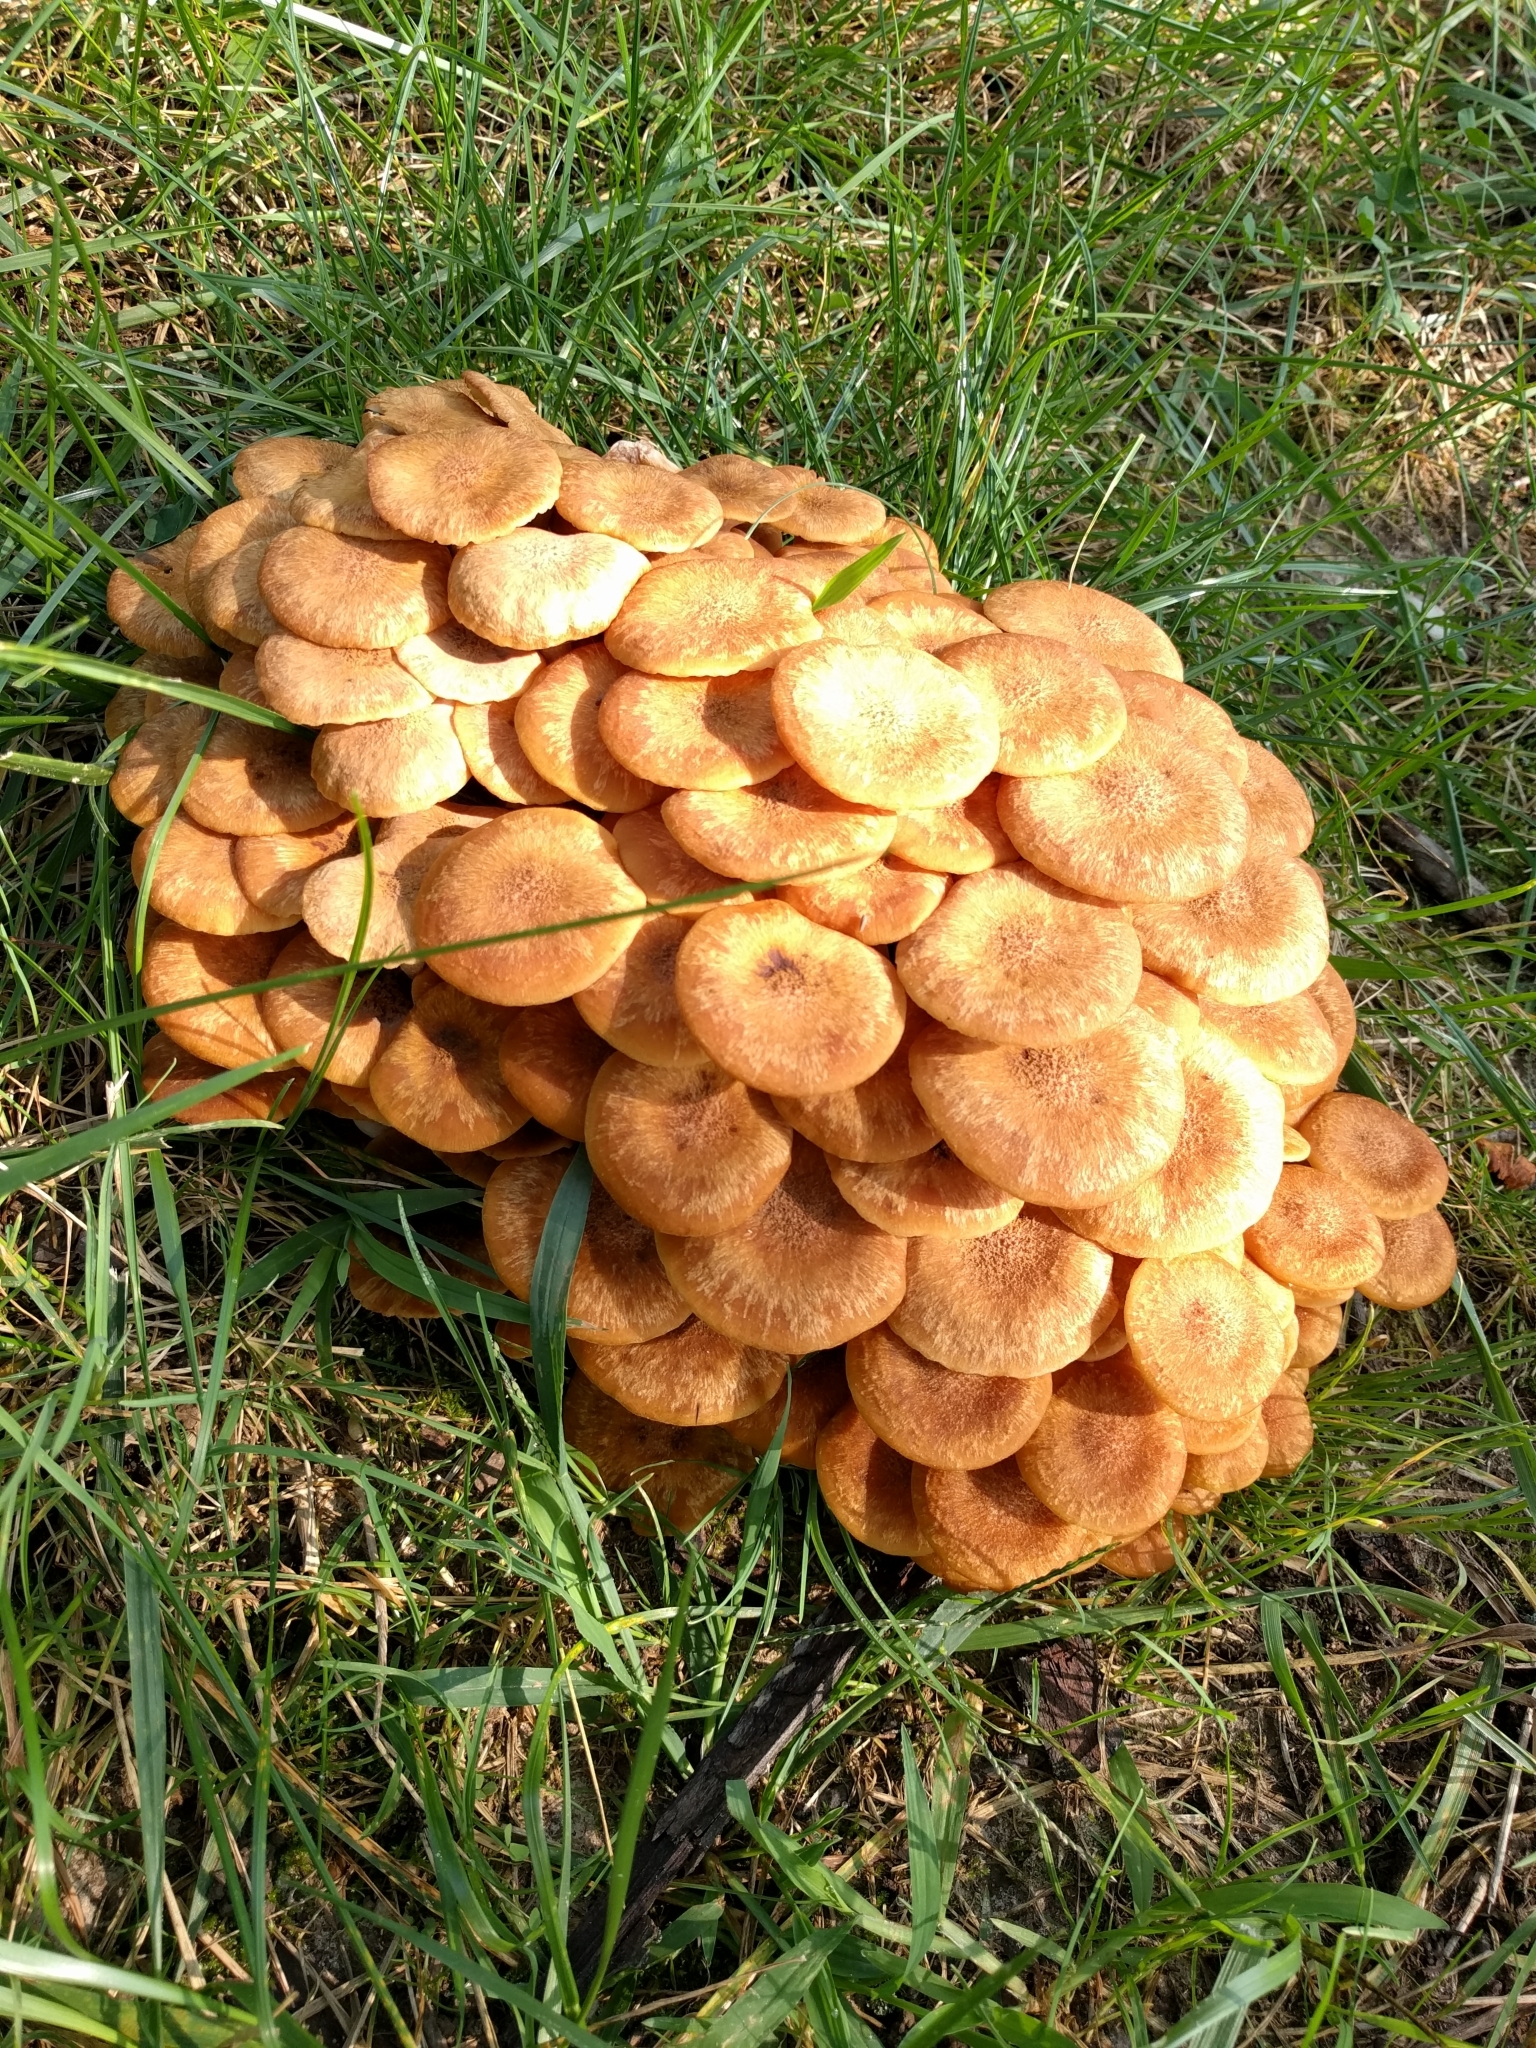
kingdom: Fungi
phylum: Basidiomycota
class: Agaricomycetes
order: Agaricales
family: Physalacriaceae
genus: Desarmillaria
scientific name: Desarmillaria caespitosa
